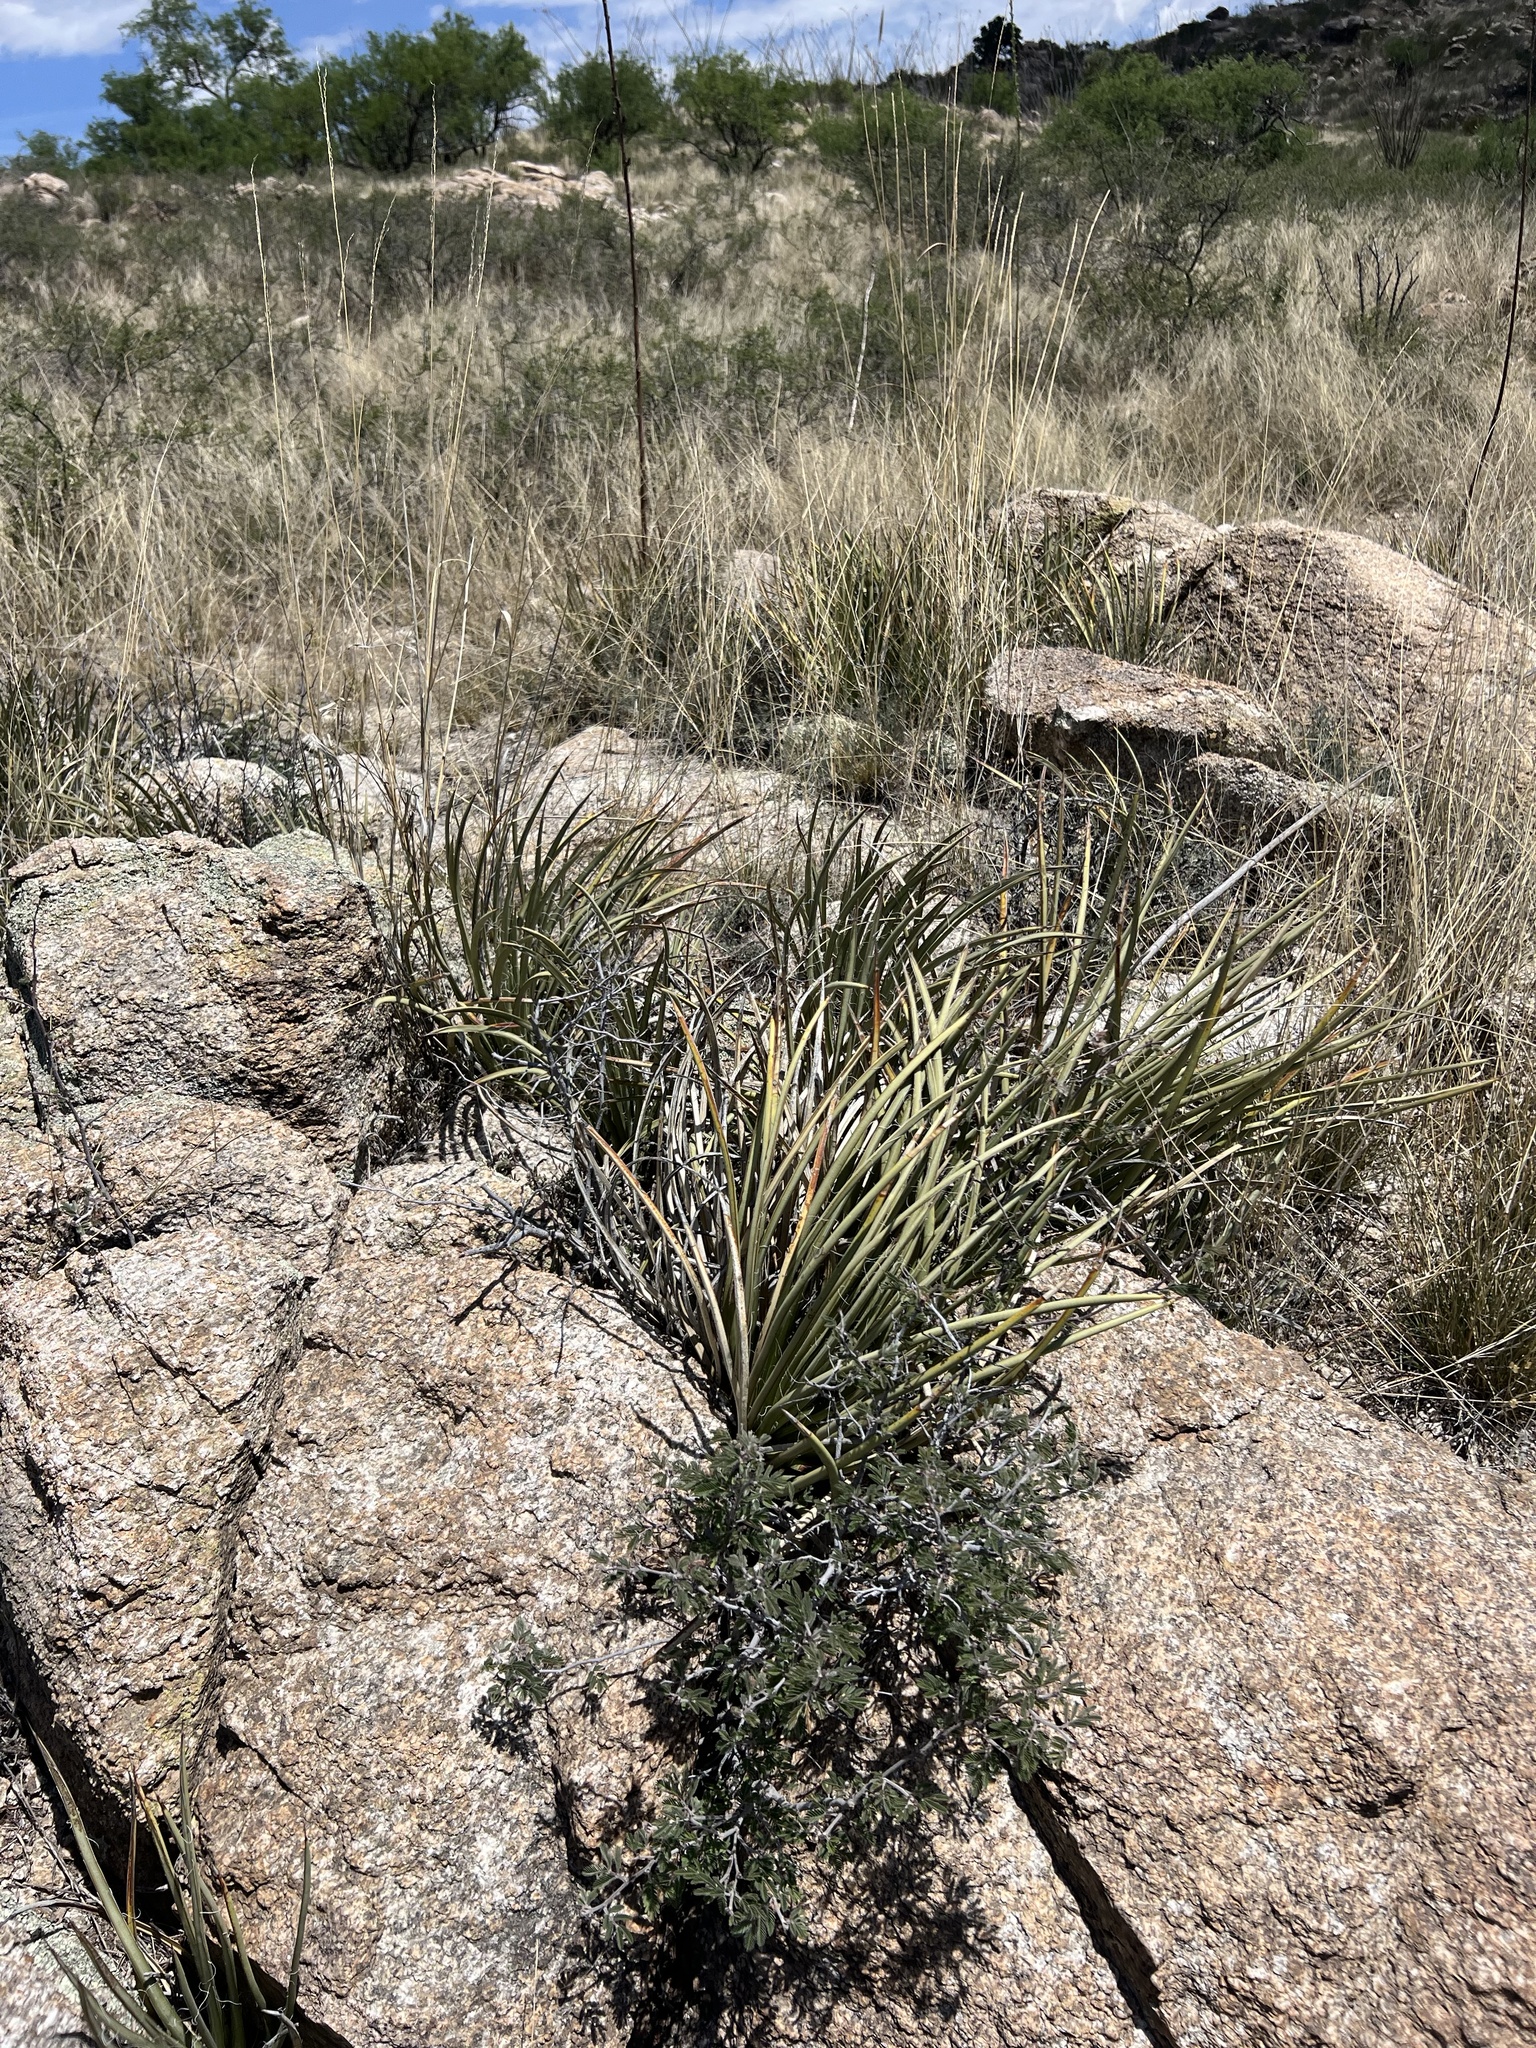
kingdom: Plantae
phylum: Tracheophyta
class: Liliopsida
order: Asparagales
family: Asparagaceae
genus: Agave
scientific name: Agave schottii
